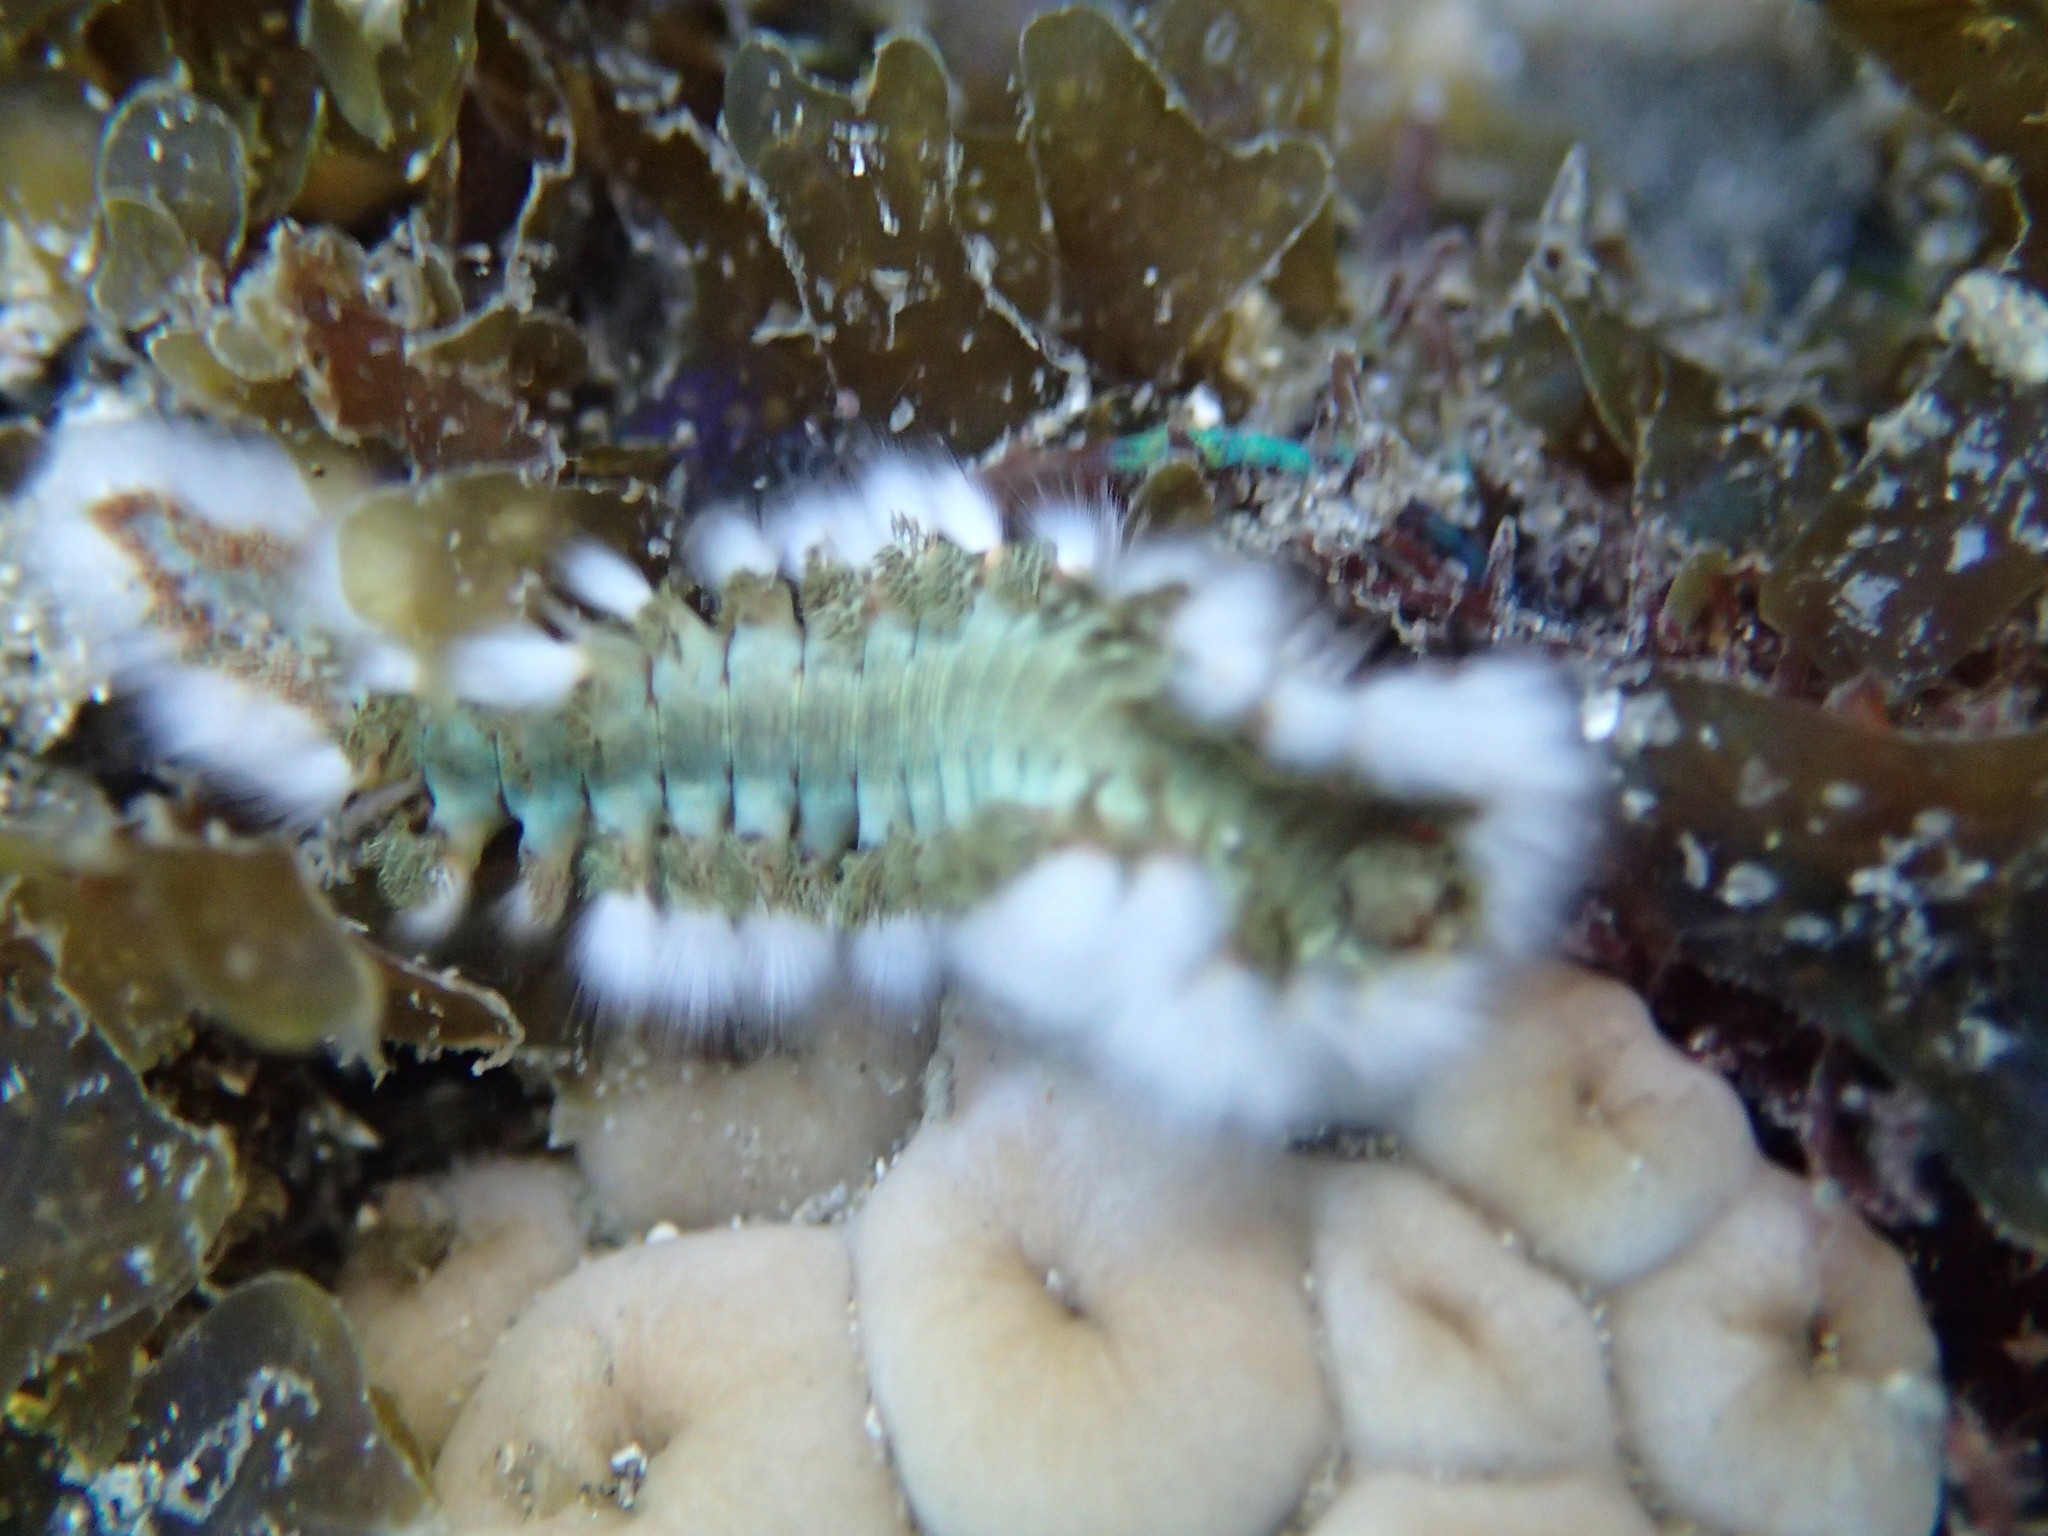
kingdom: Animalia
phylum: Annelida
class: Polychaeta
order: Amphinomida
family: Amphinomidae
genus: Hermodice
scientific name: Hermodice carunculata
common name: Bearded fireworm
